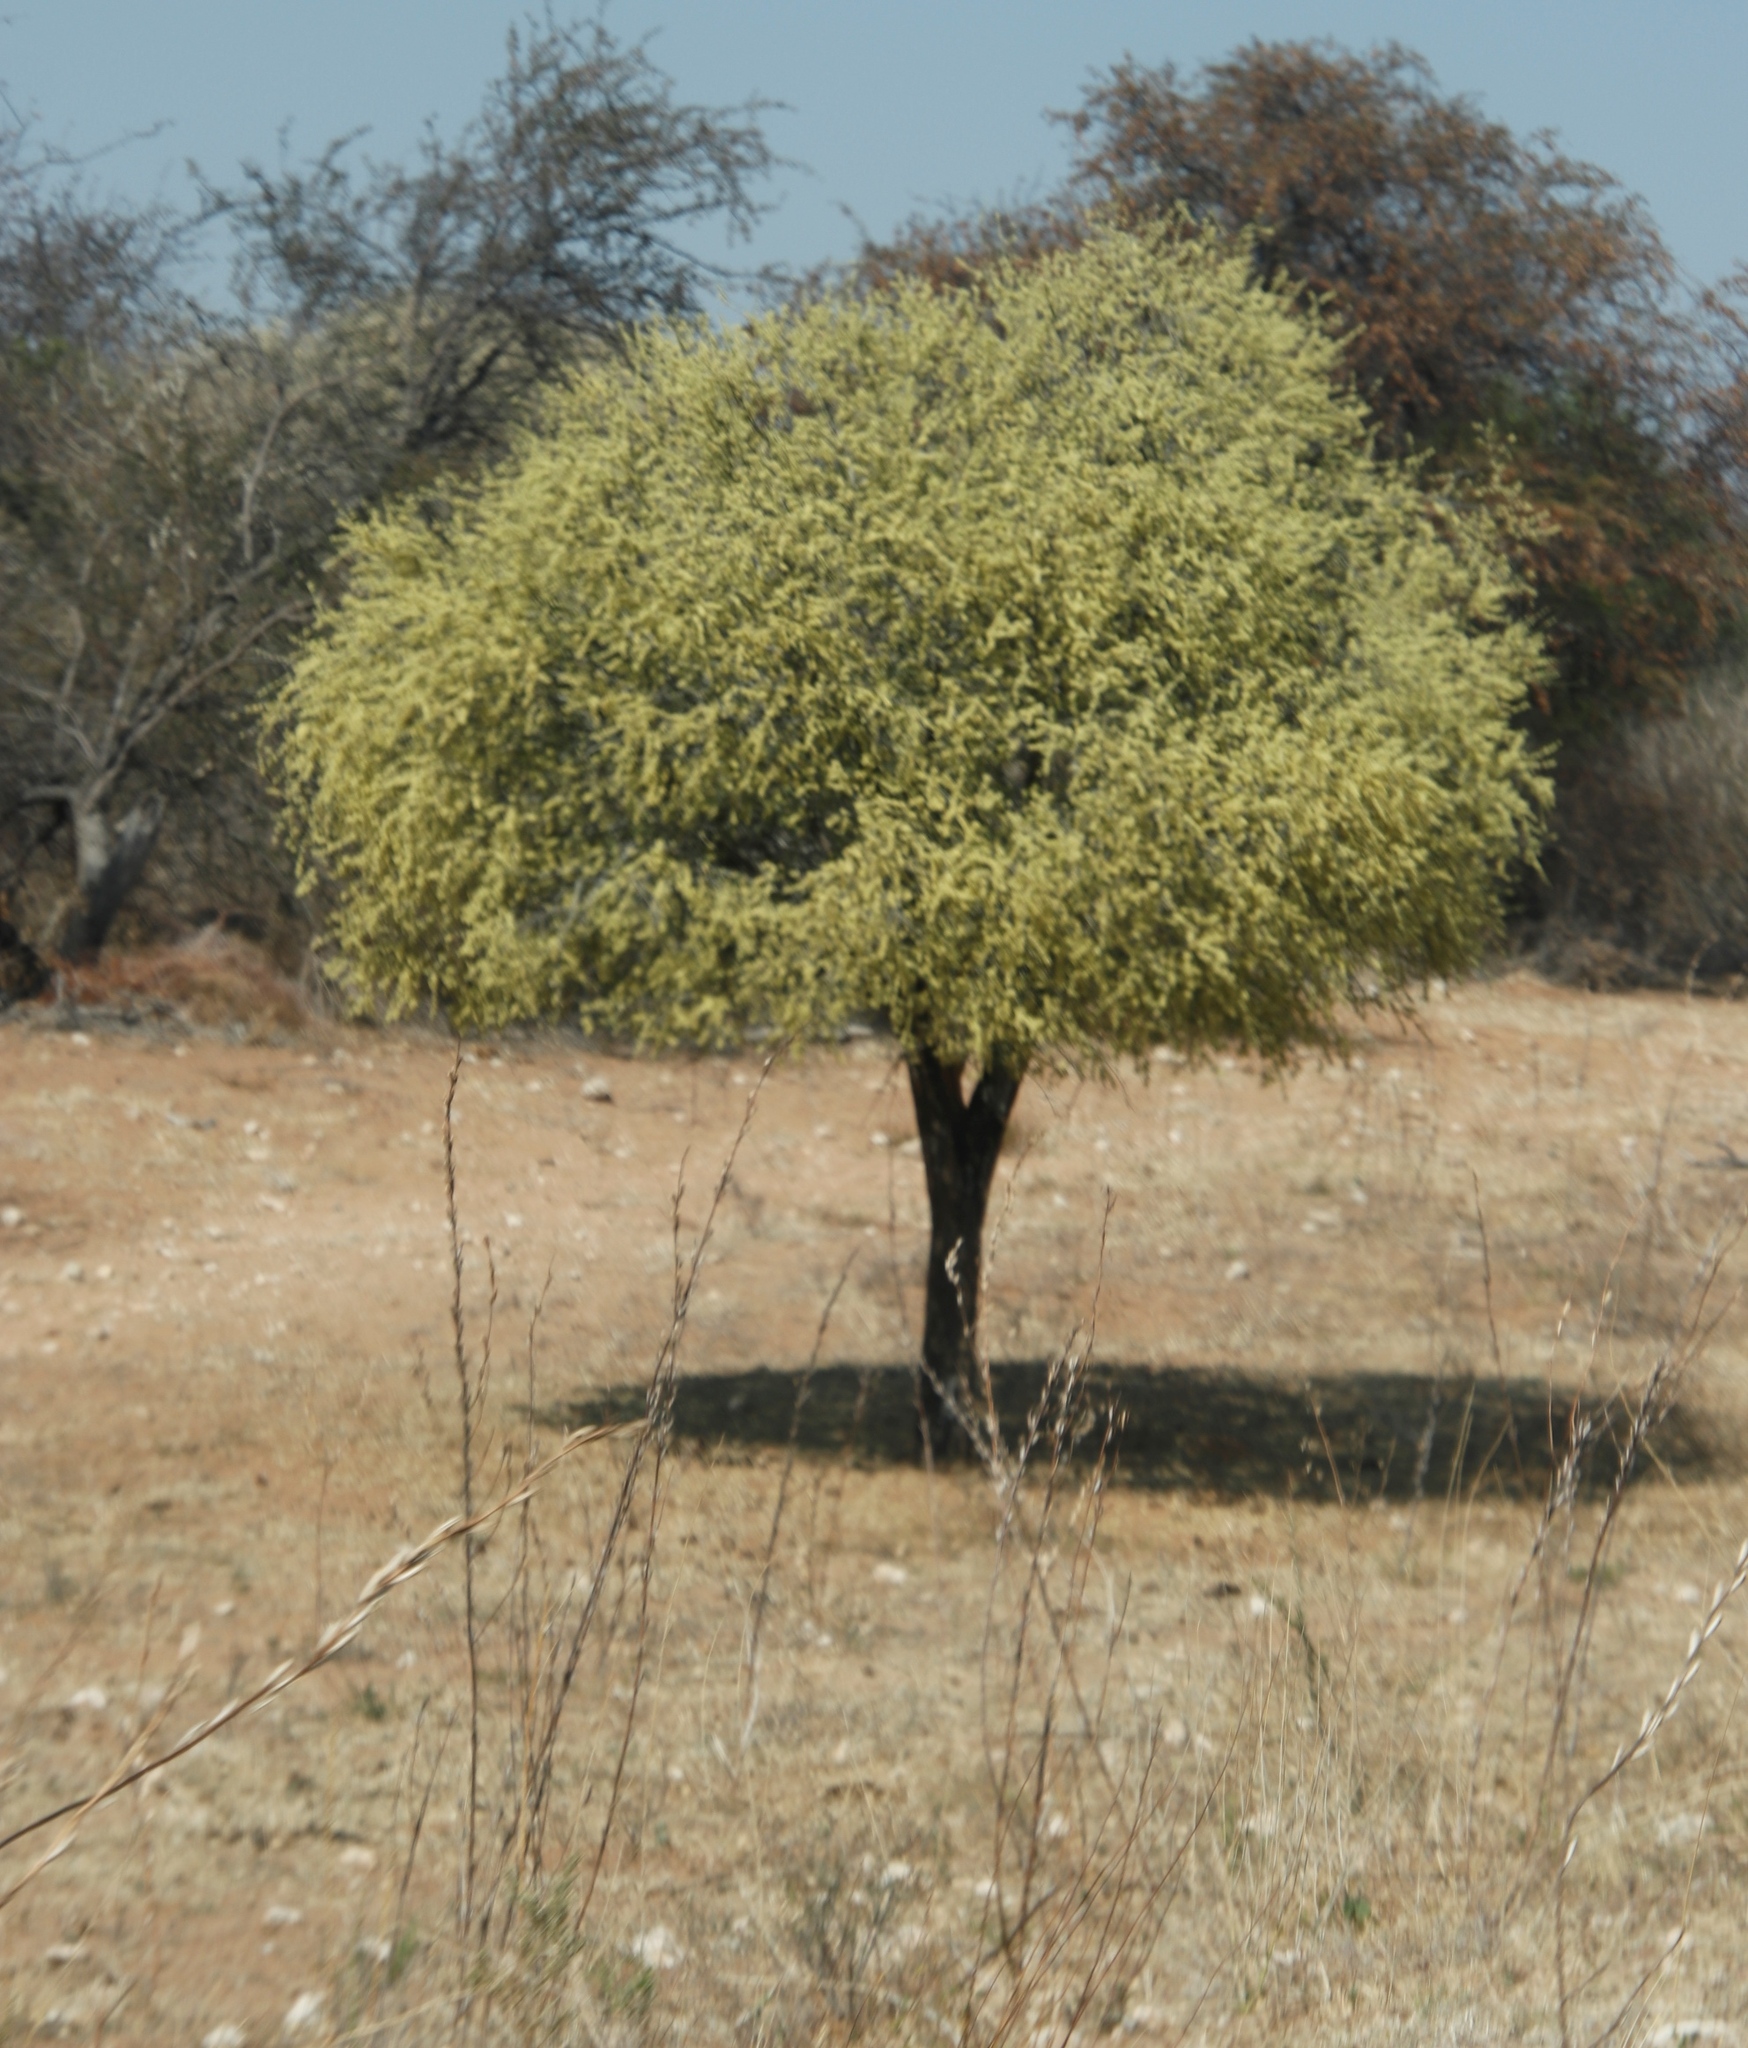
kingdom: Plantae
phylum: Tracheophyta
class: Magnoliopsida
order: Brassicales
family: Capparaceae
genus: Boscia
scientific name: Boscia albitrunca
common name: Caper bush
